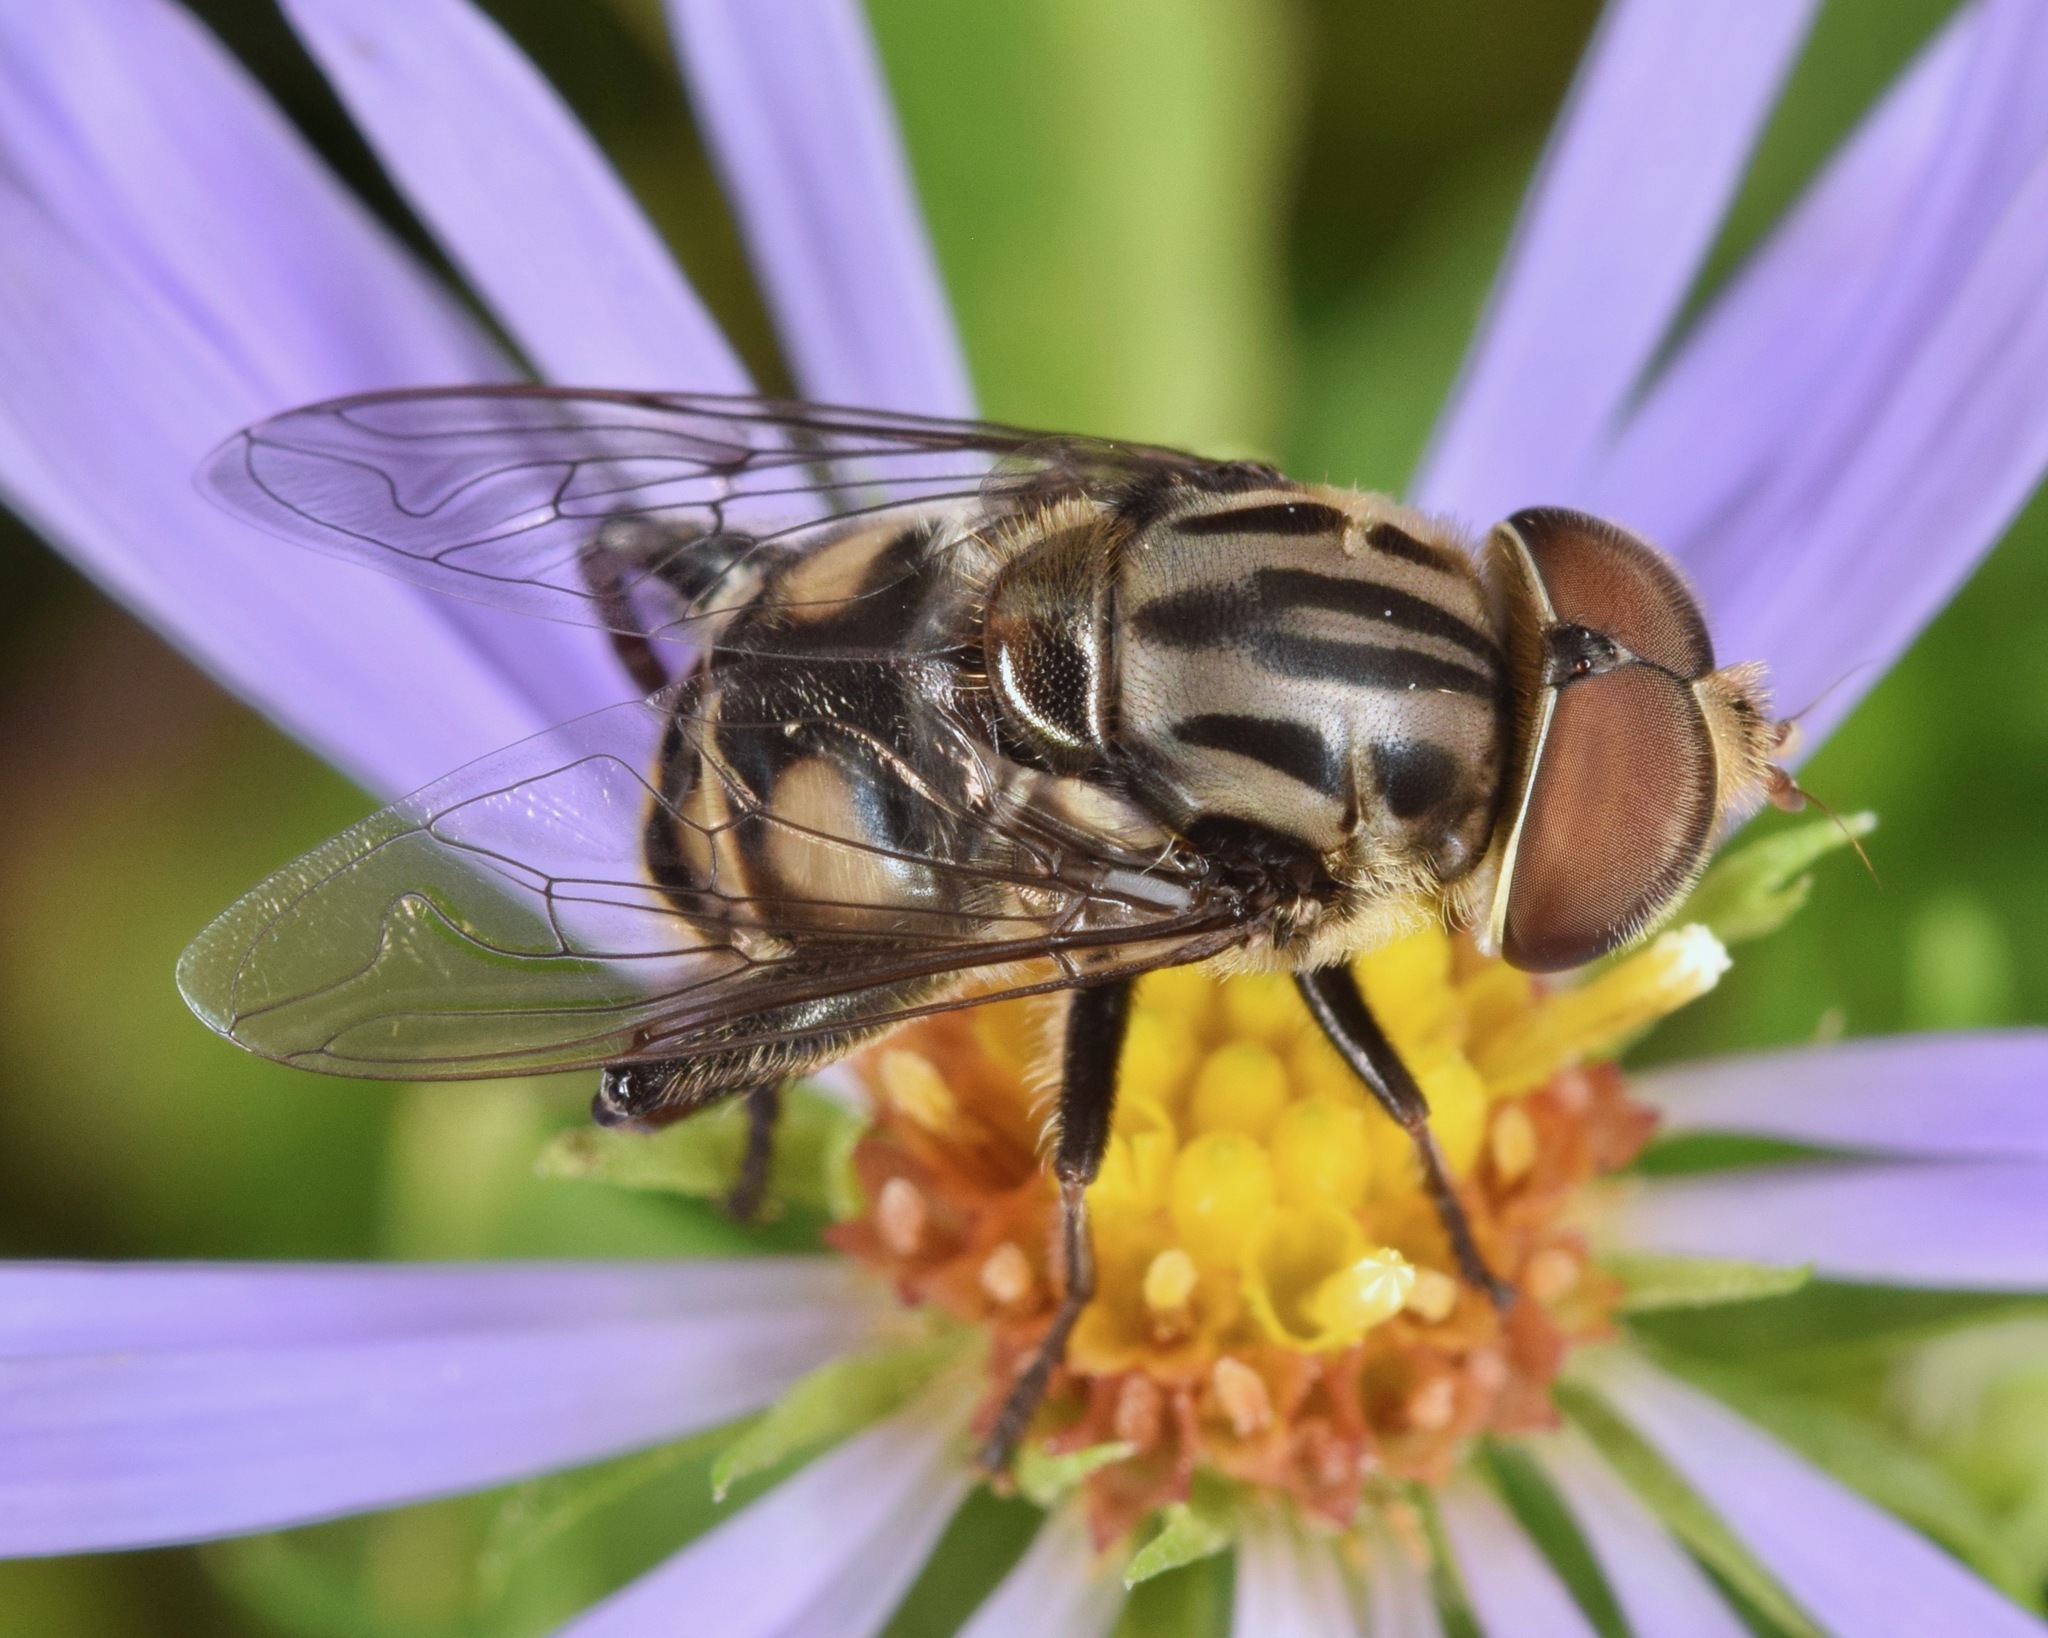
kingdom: Animalia
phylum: Arthropoda
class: Insecta
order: Diptera
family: Syrphidae
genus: Palpada
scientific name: Palpada furcata
